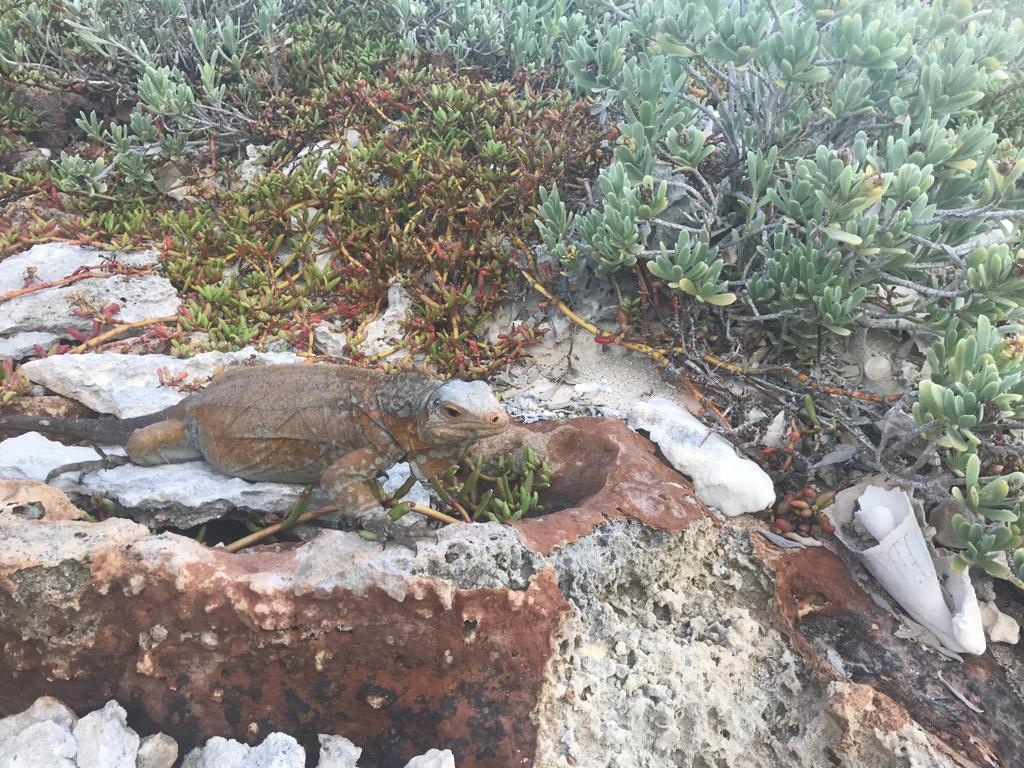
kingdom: Animalia
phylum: Chordata
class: Squamata
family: Iguanidae
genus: Cyclura
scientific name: Cyclura rileyi
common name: Acklin's ground iguana
